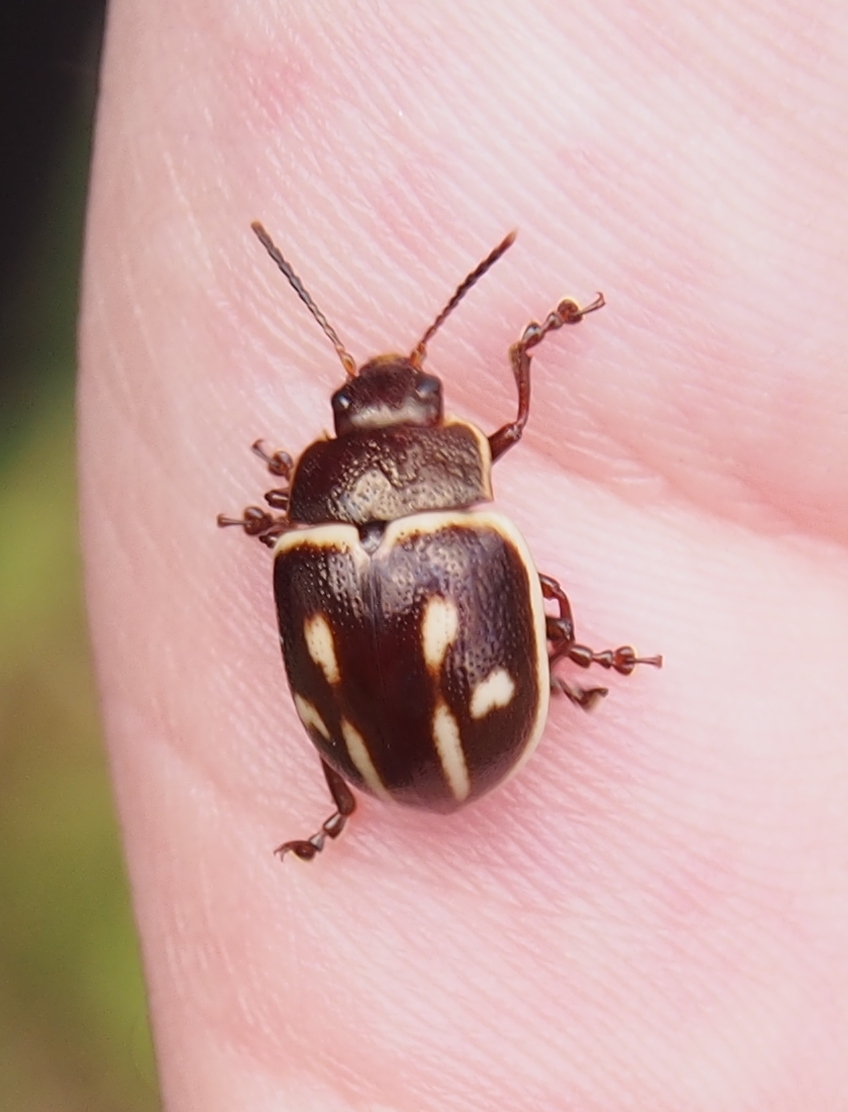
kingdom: Animalia
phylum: Arthropoda
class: Insecta
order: Coleoptera
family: Chrysomelidae
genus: Platyphora
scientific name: Platyphora
